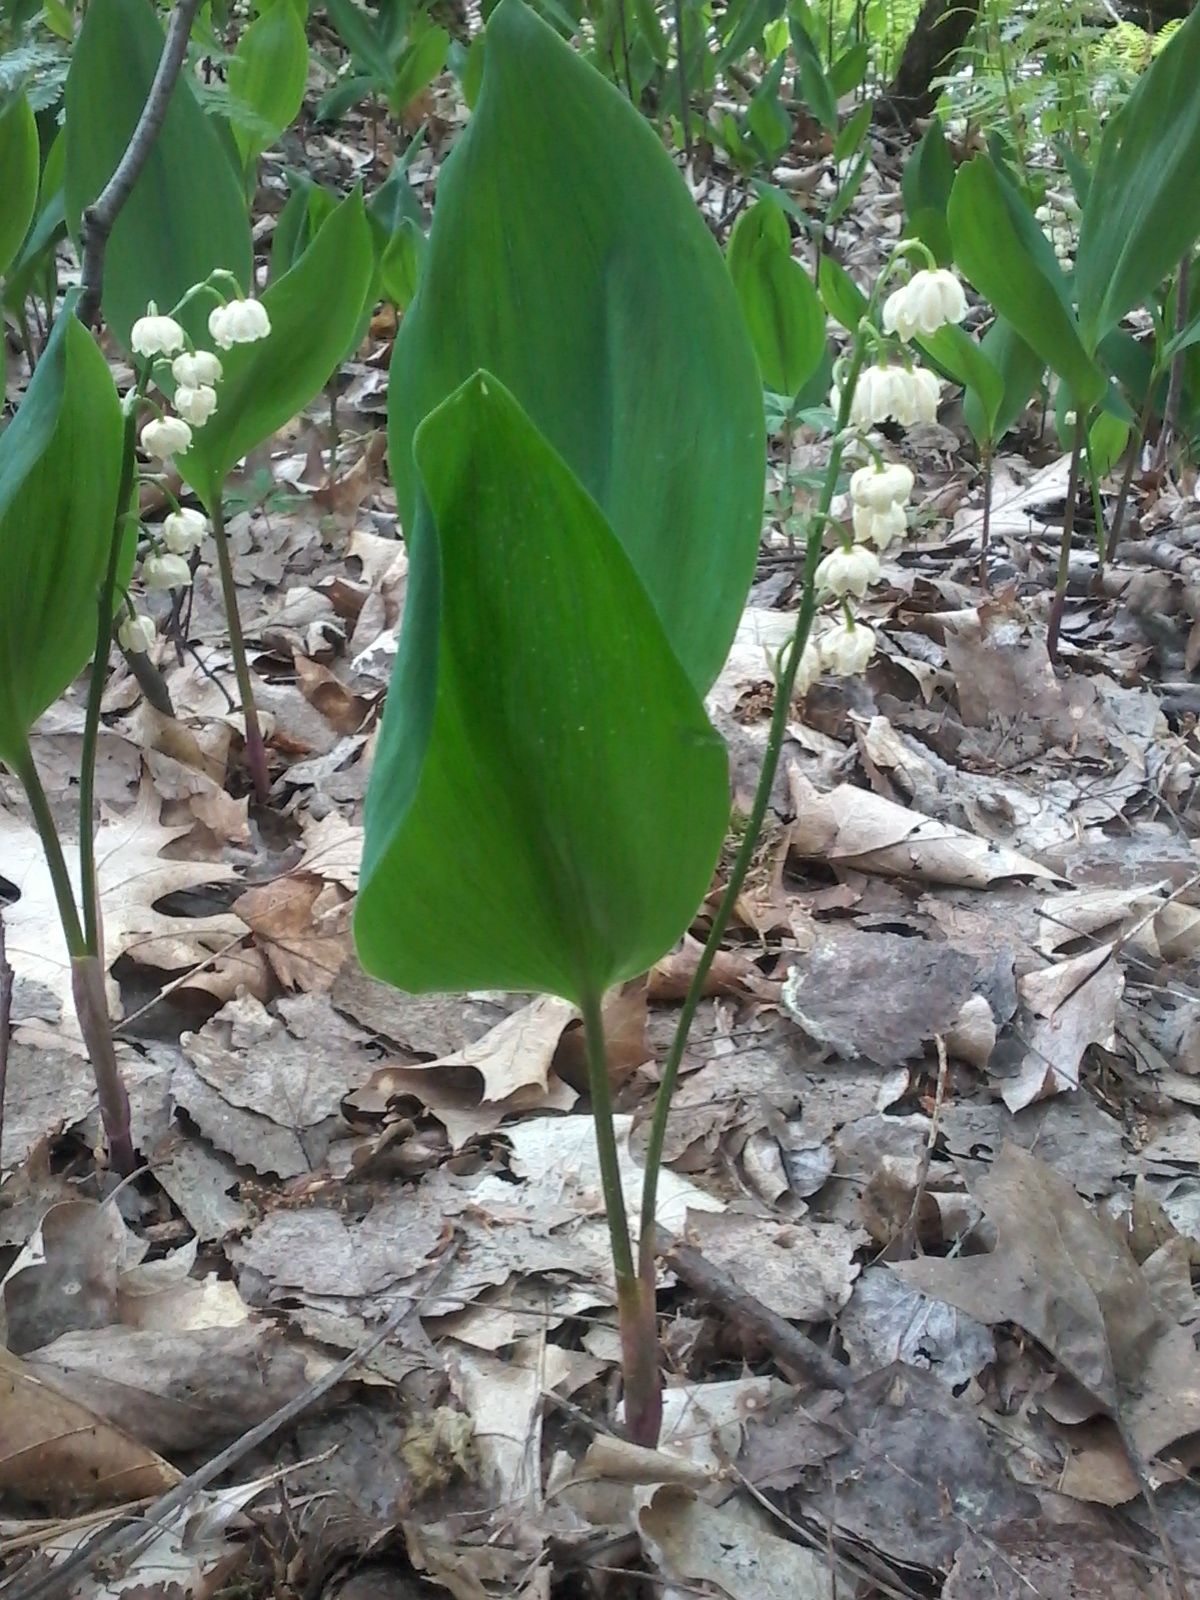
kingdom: Plantae
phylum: Tracheophyta
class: Liliopsida
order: Asparagales
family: Asparagaceae
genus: Convallaria
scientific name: Convallaria majalis
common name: Lily-of-the-valley
